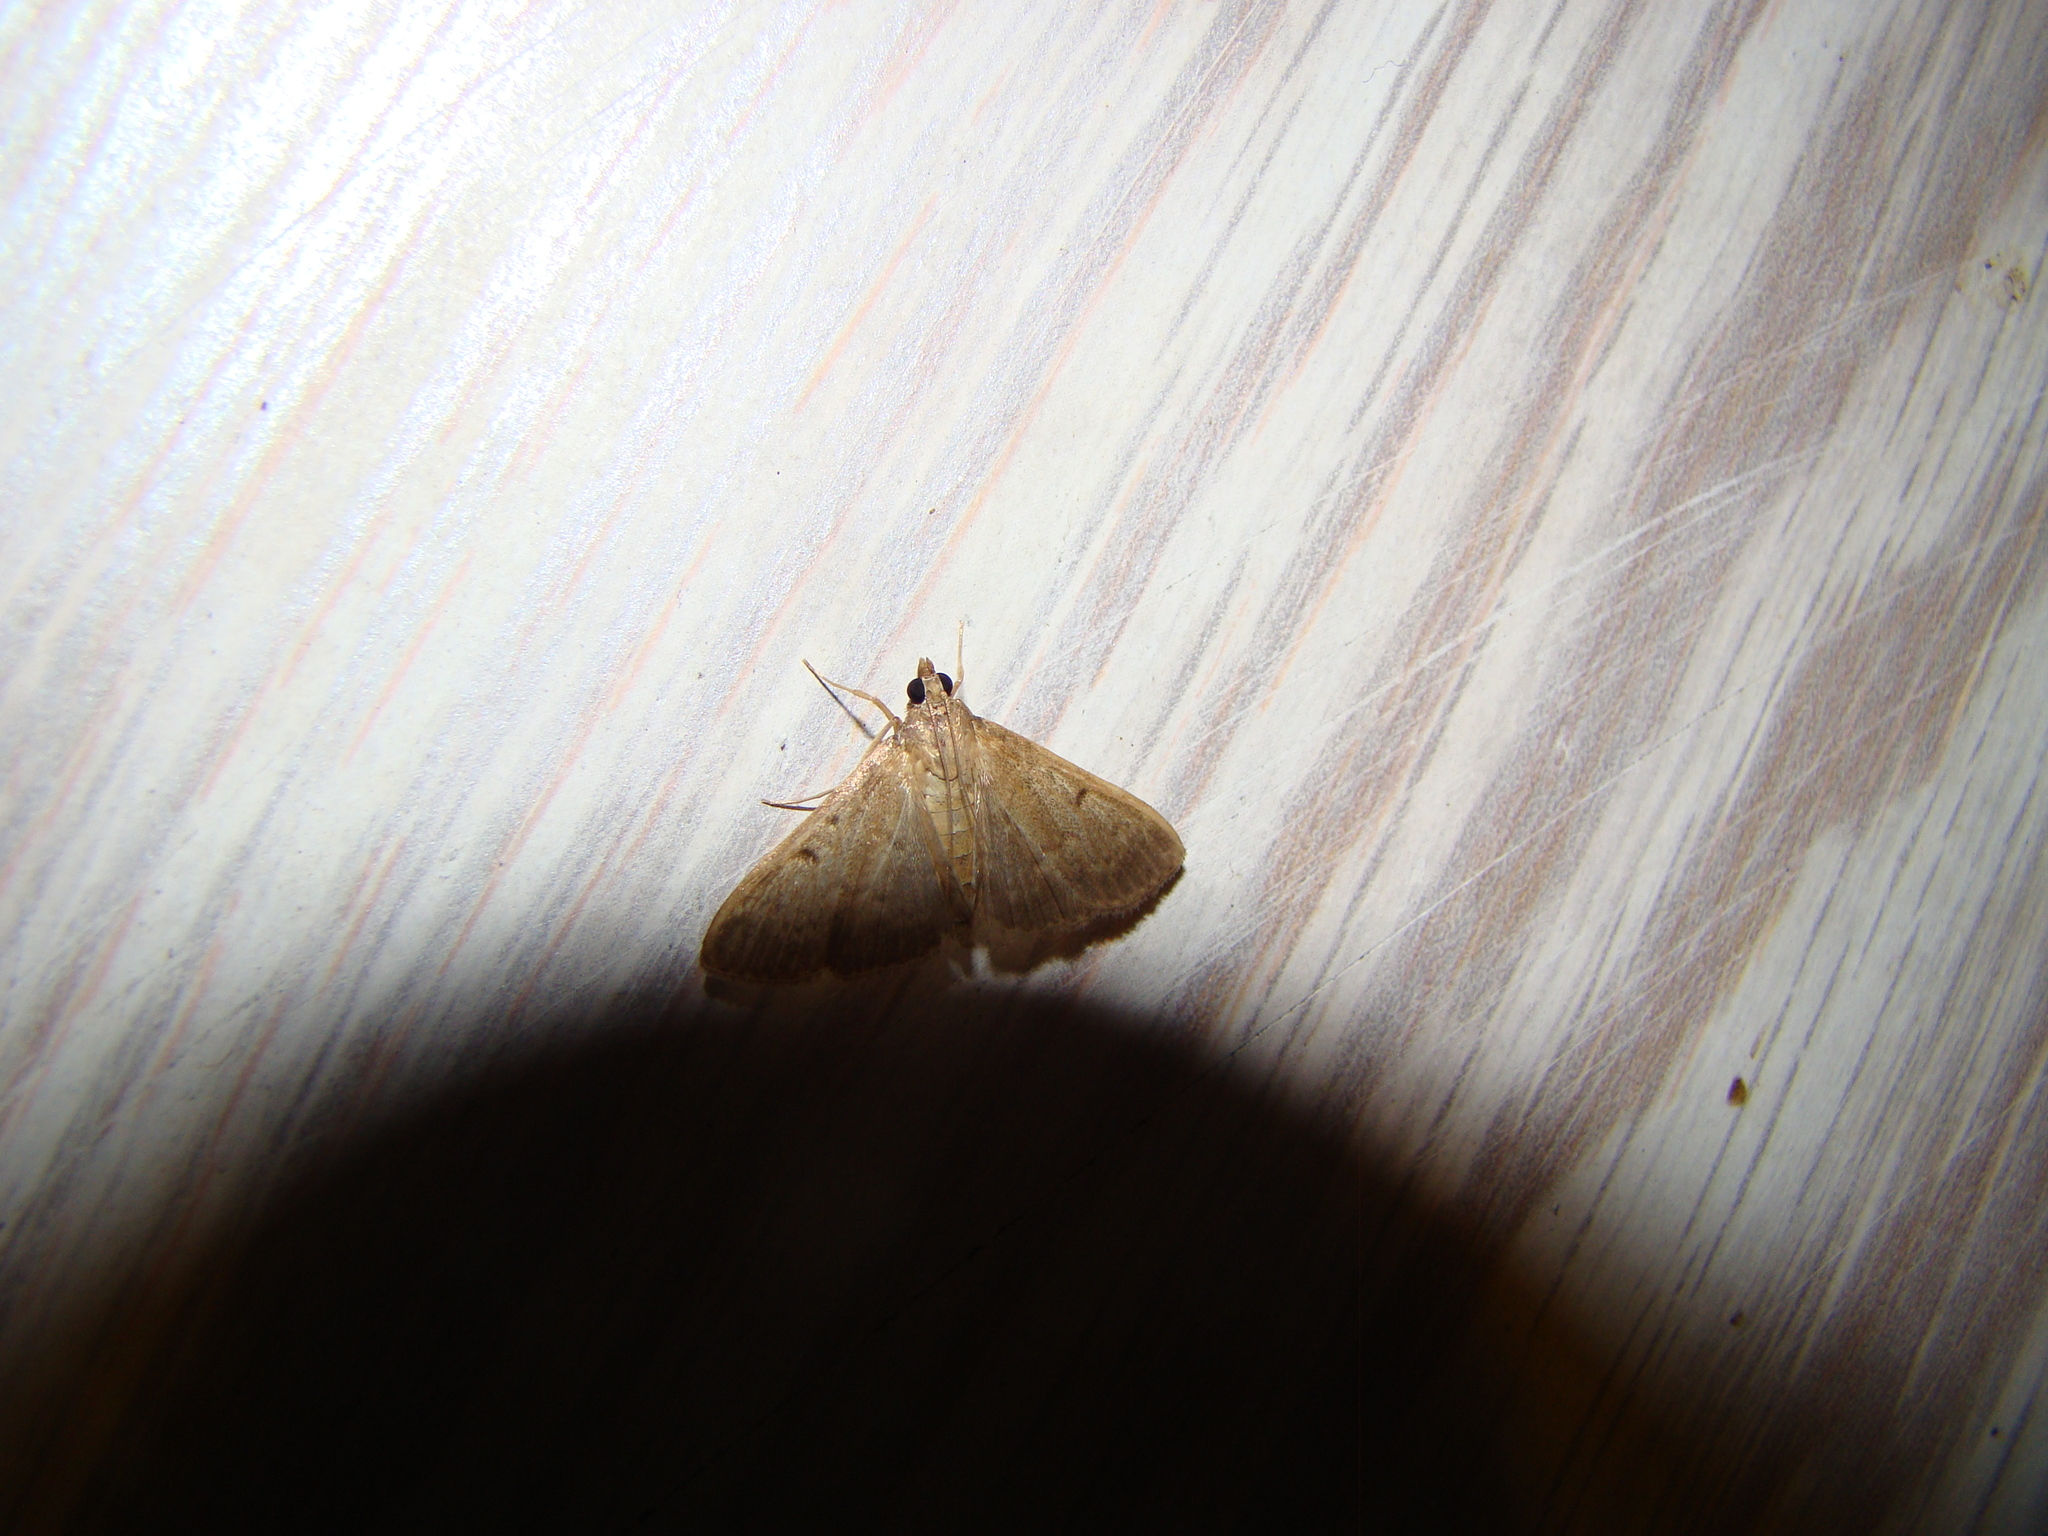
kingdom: Animalia
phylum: Arthropoda
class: Insecta
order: Lepidoptera
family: Crambidae
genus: Herpetogramma
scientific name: Herpetogramma licarsisalis
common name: Grass webworm
